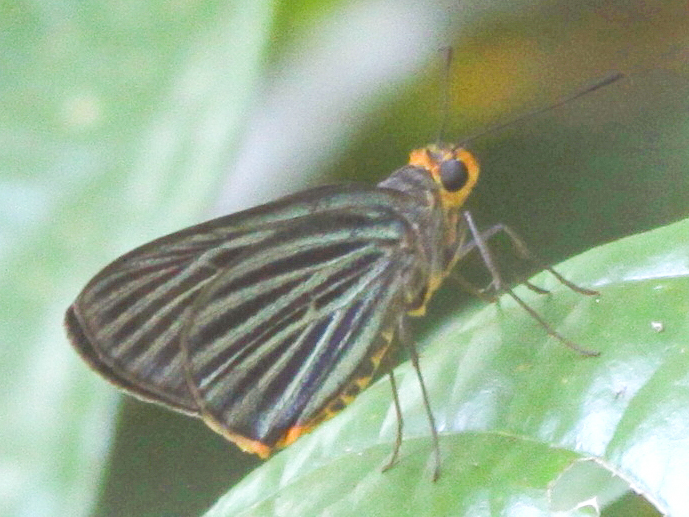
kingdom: Animalia
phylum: Arthropoda
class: Insecta
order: Lepidoptera
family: Hesperiidae
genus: Pirdana
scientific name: Pirdana hyela
